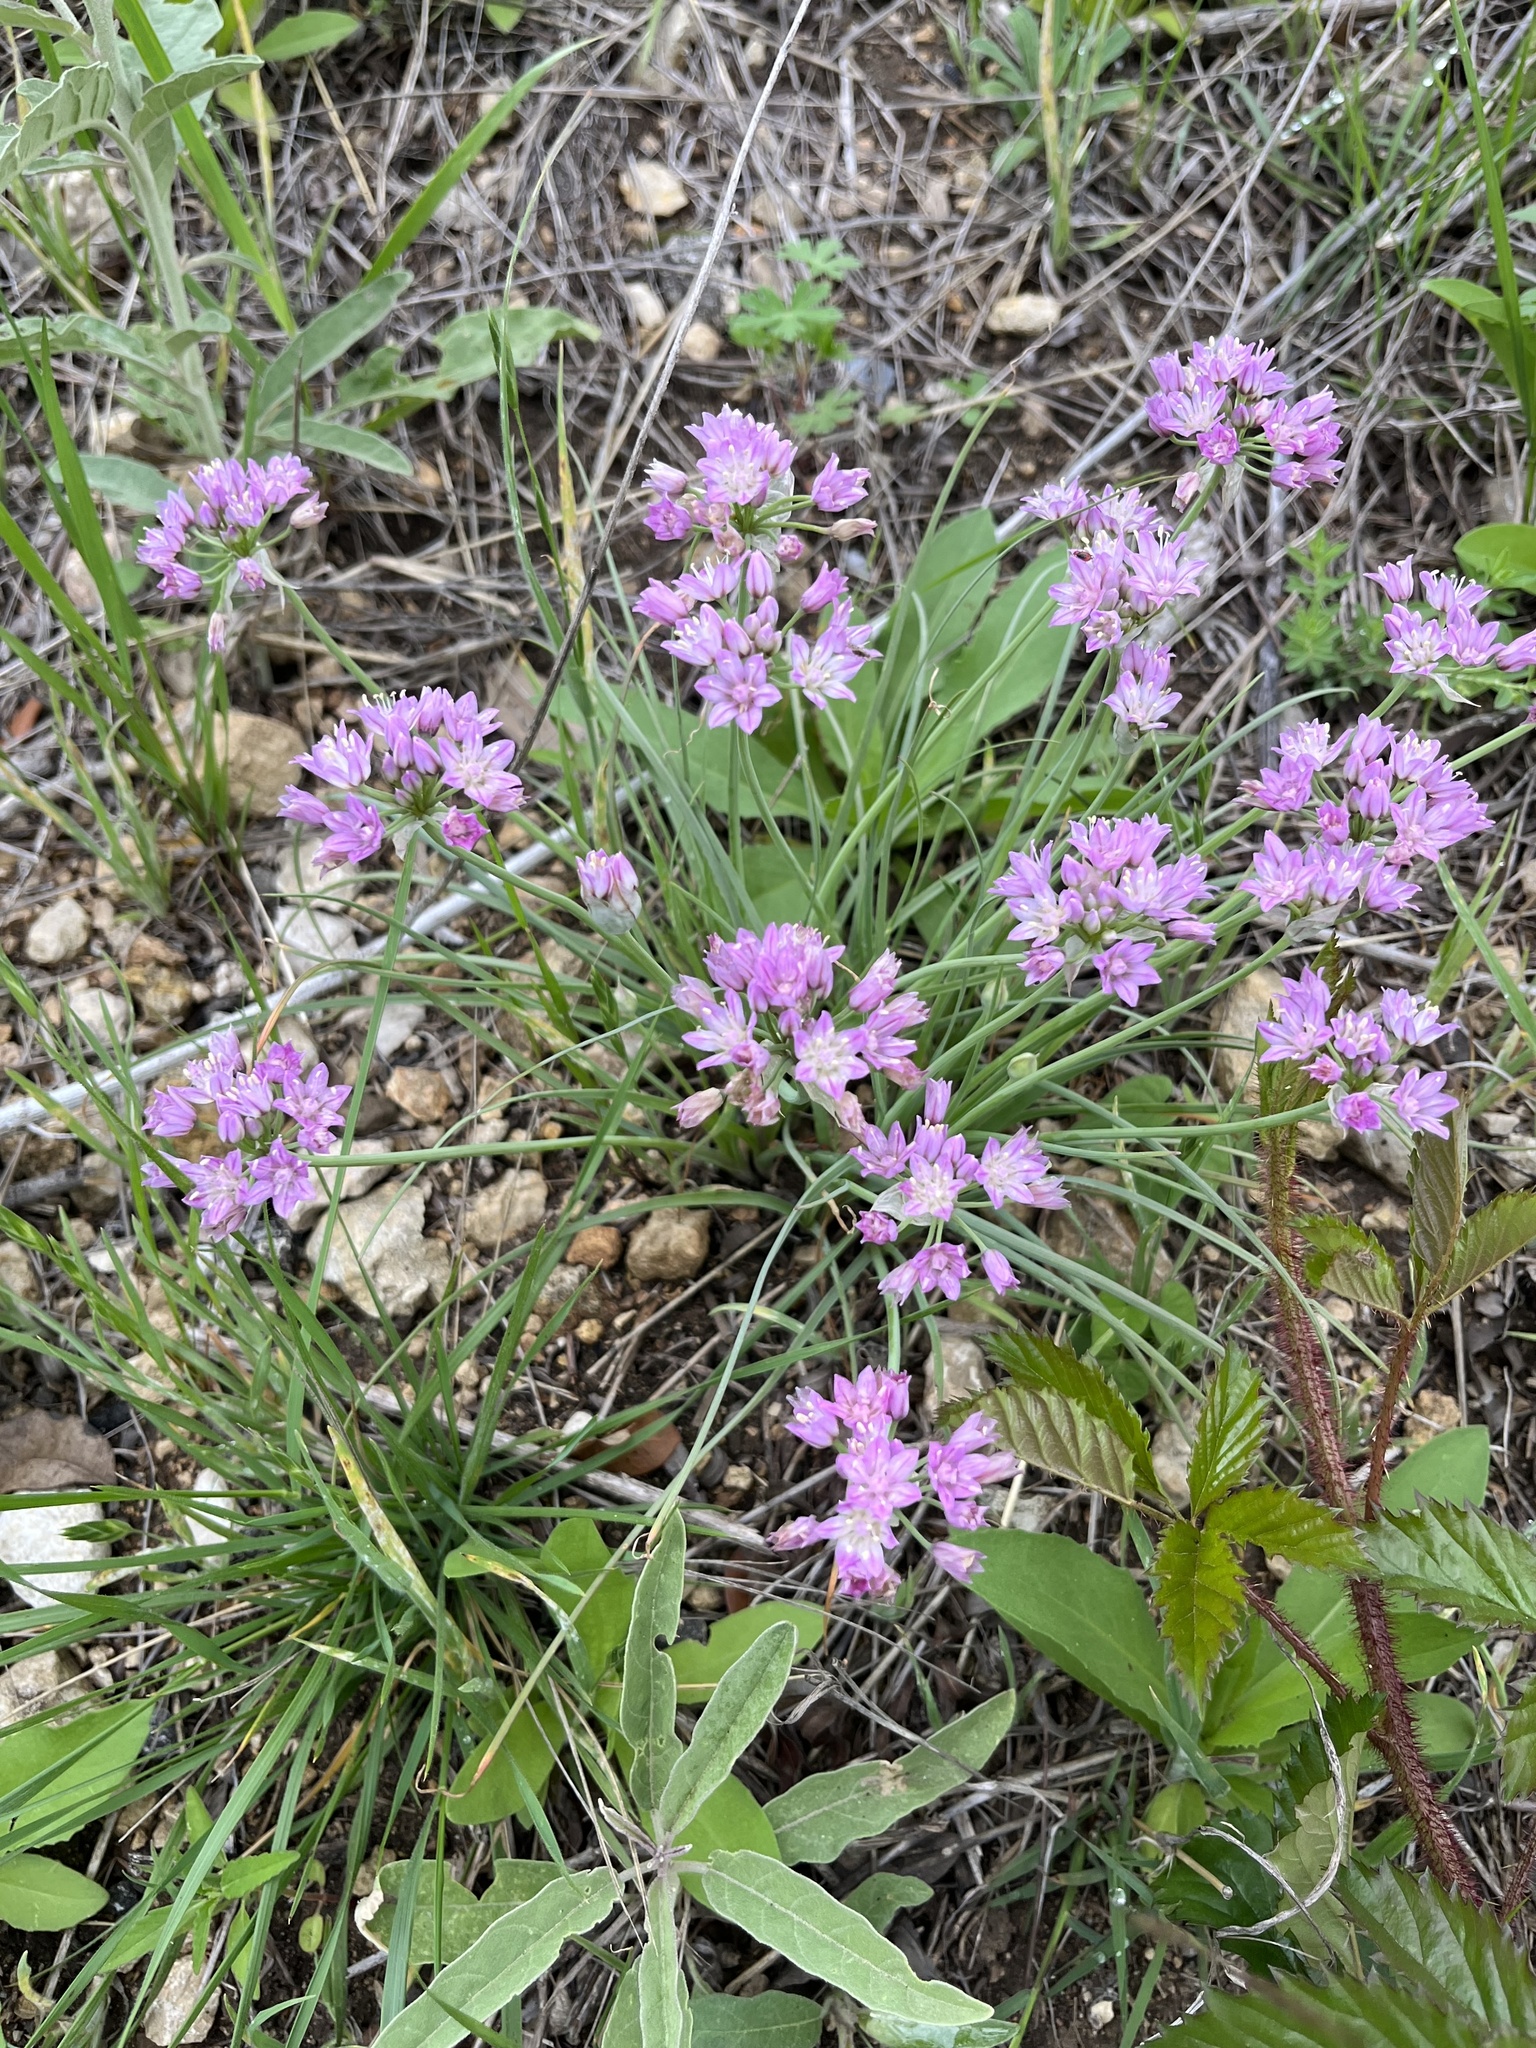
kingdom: Plantae
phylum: Tracheophyta
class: Liliopsida
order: Asparagales
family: Amaryllidaceae
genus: Allium
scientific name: Allium drummondii
